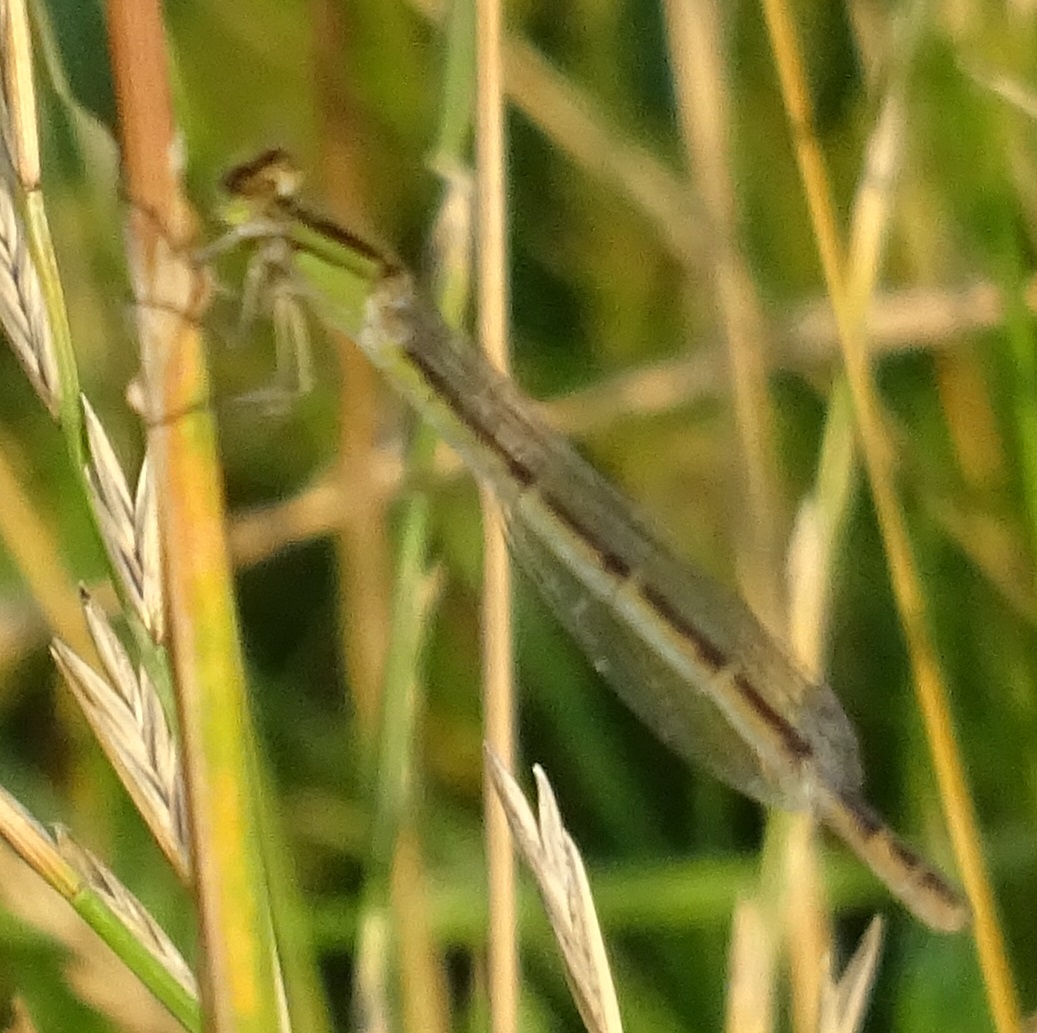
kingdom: Animalia
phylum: Arthropoda
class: Insecta
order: Odonata
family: Coenagrionidae
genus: Enallagma
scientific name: Enallagma cyathigerum
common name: Common blue damselfly
